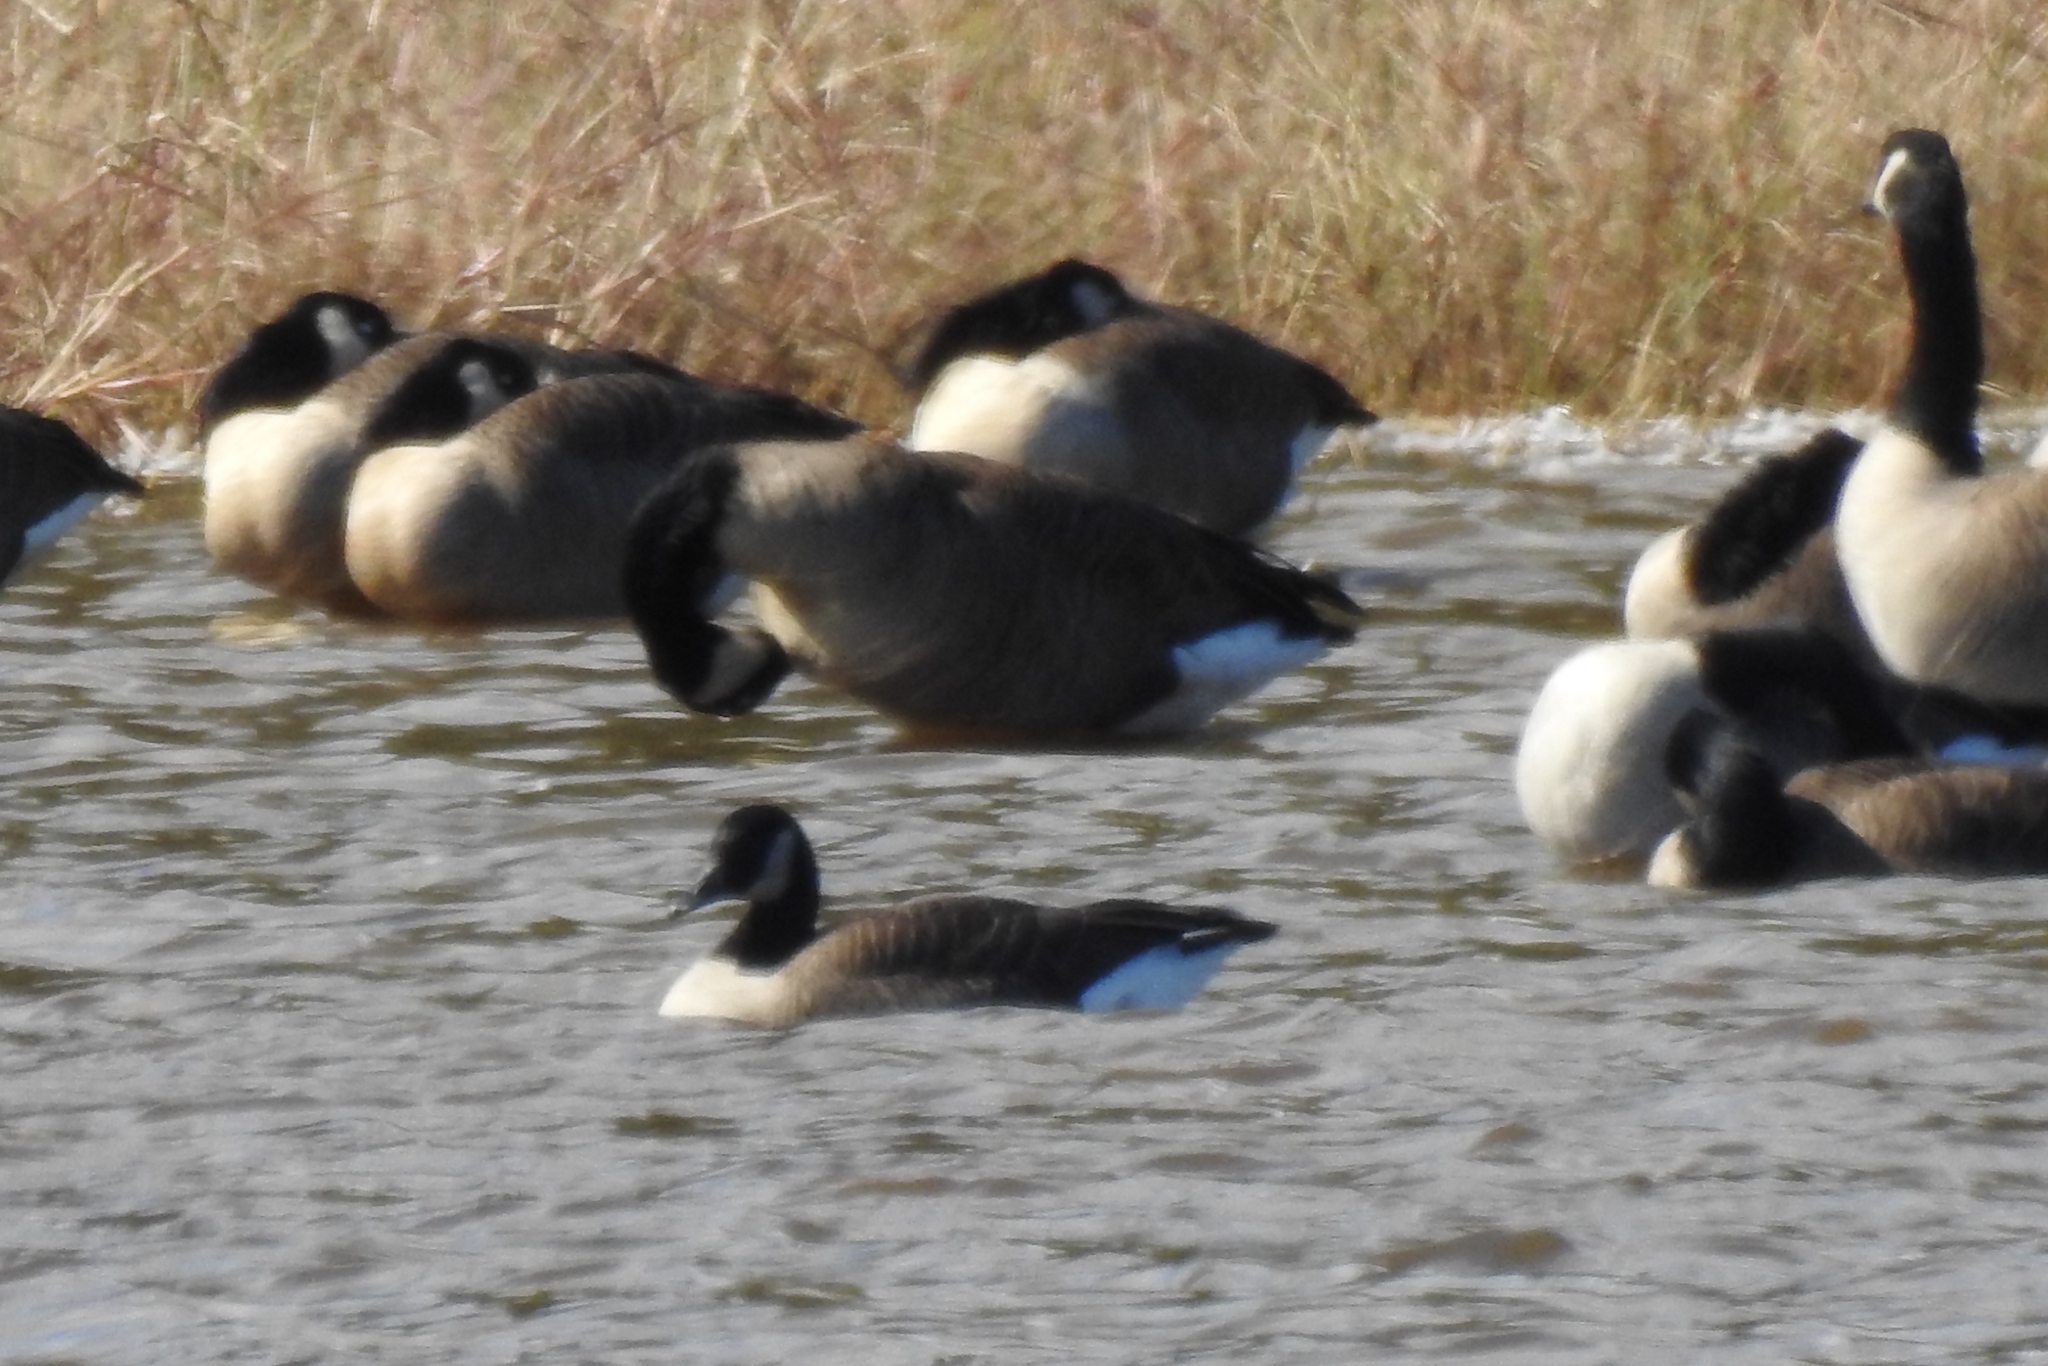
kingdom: Animalia
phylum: Chordata
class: Aves
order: Anseriformes
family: Anatidae
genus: Branta
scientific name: Branta canadensis
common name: Canada goose
